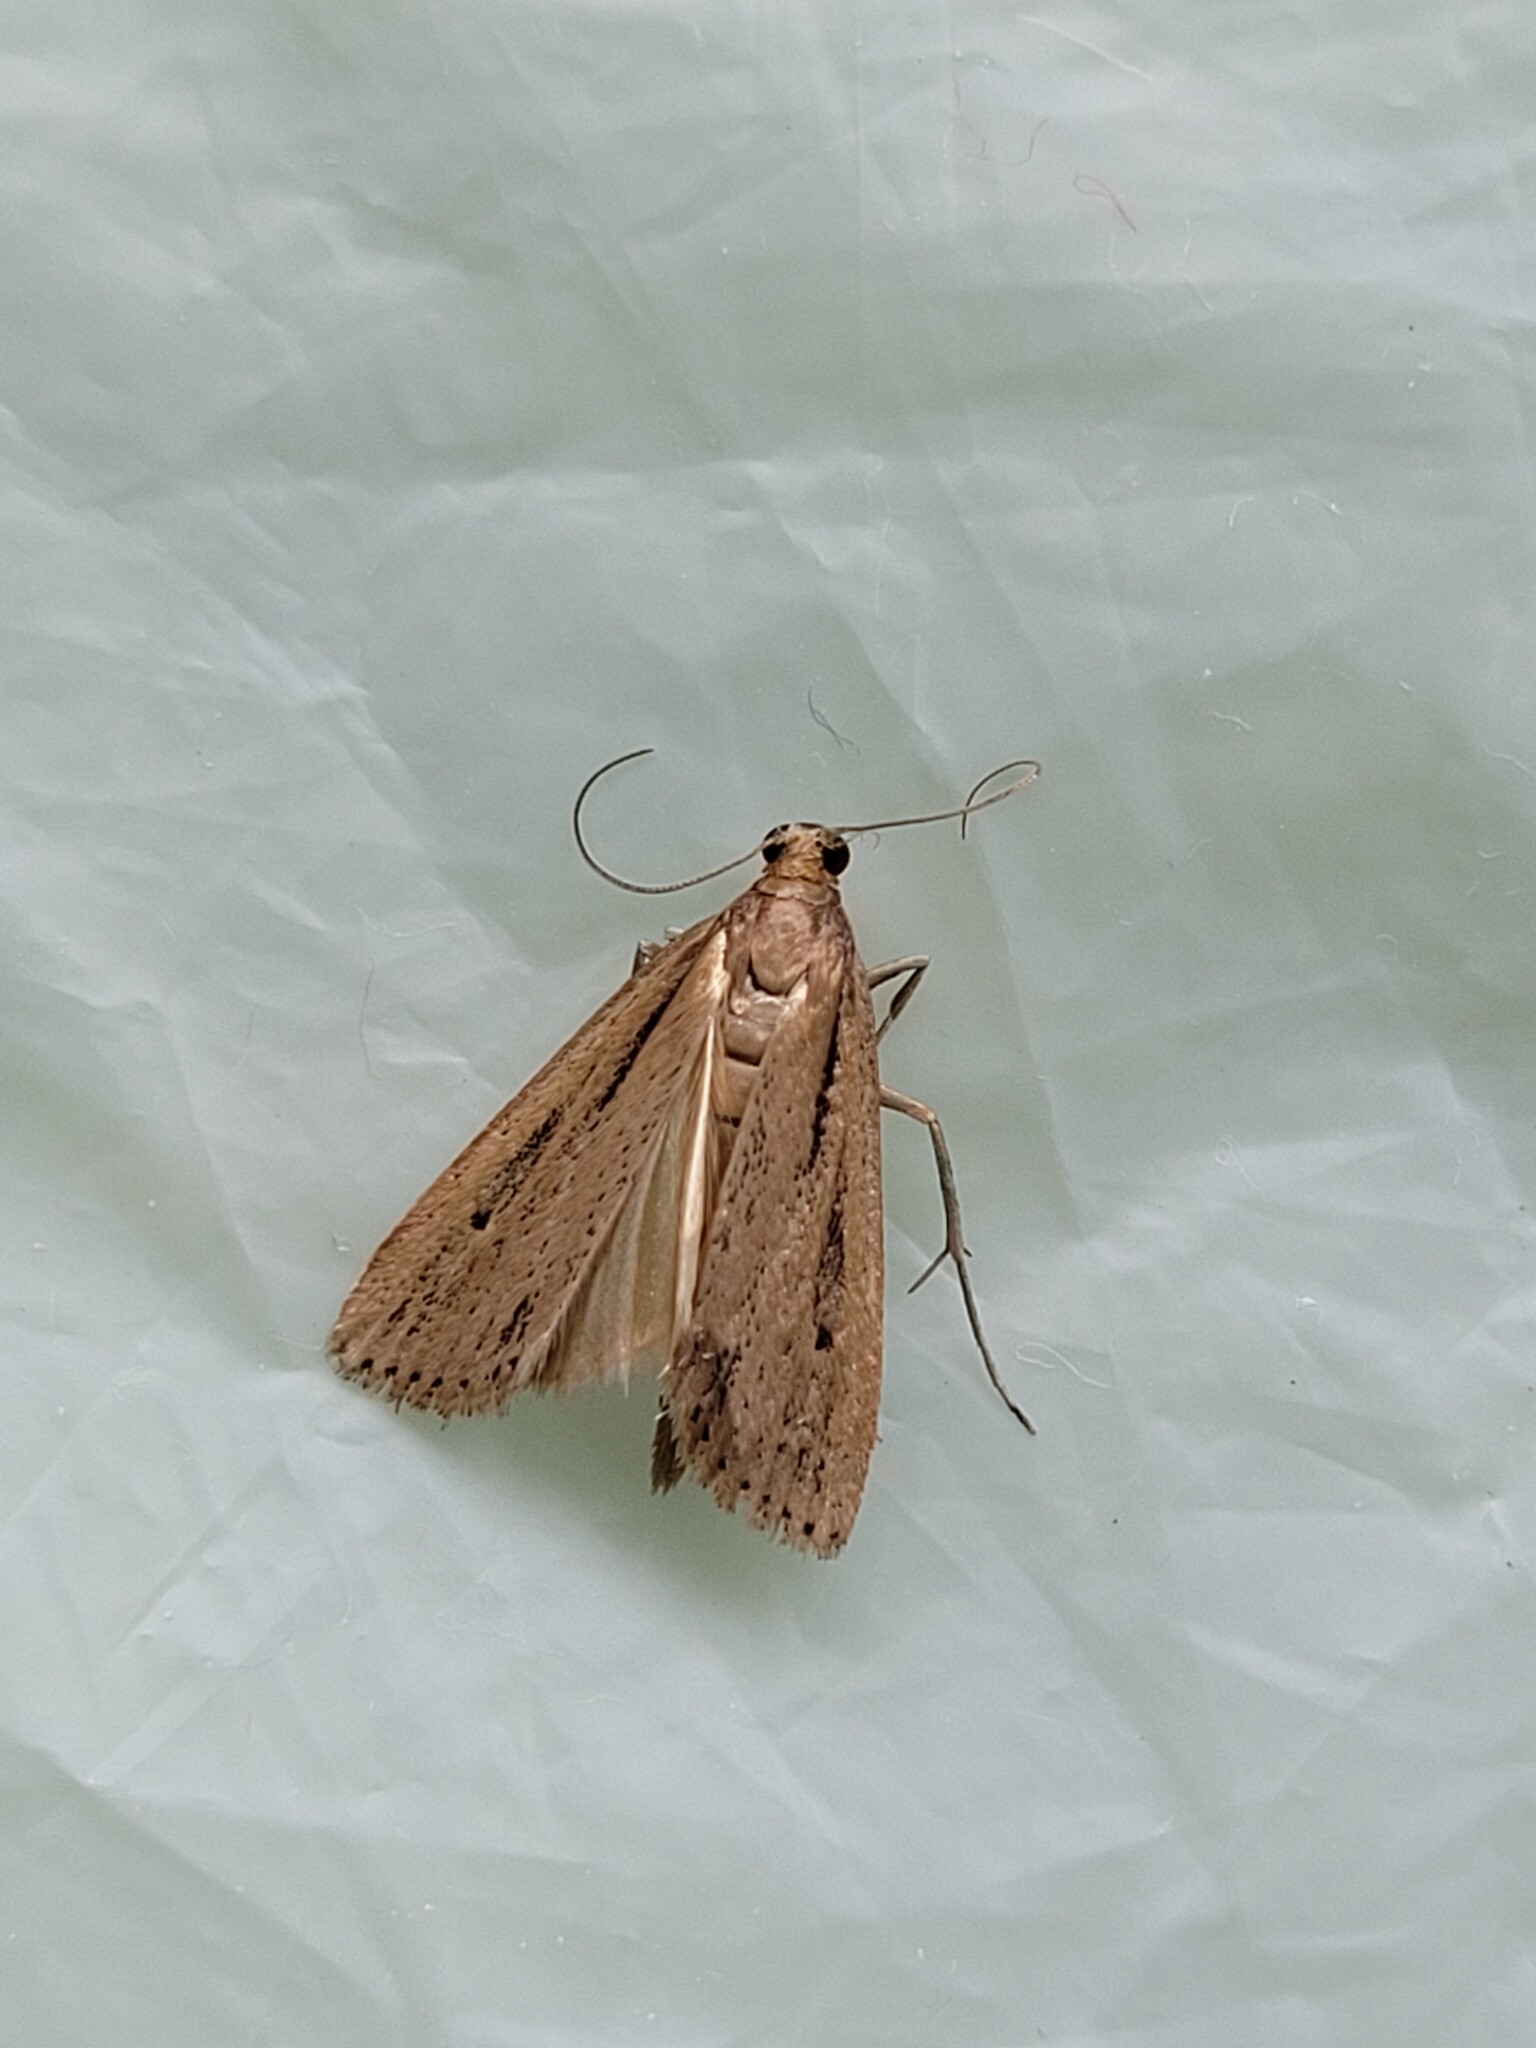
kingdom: Animalia
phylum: Arthropoda
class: Insecta
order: Lepidoptera
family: Crambidae
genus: Eudonia
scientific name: Eudonia sabulosella
